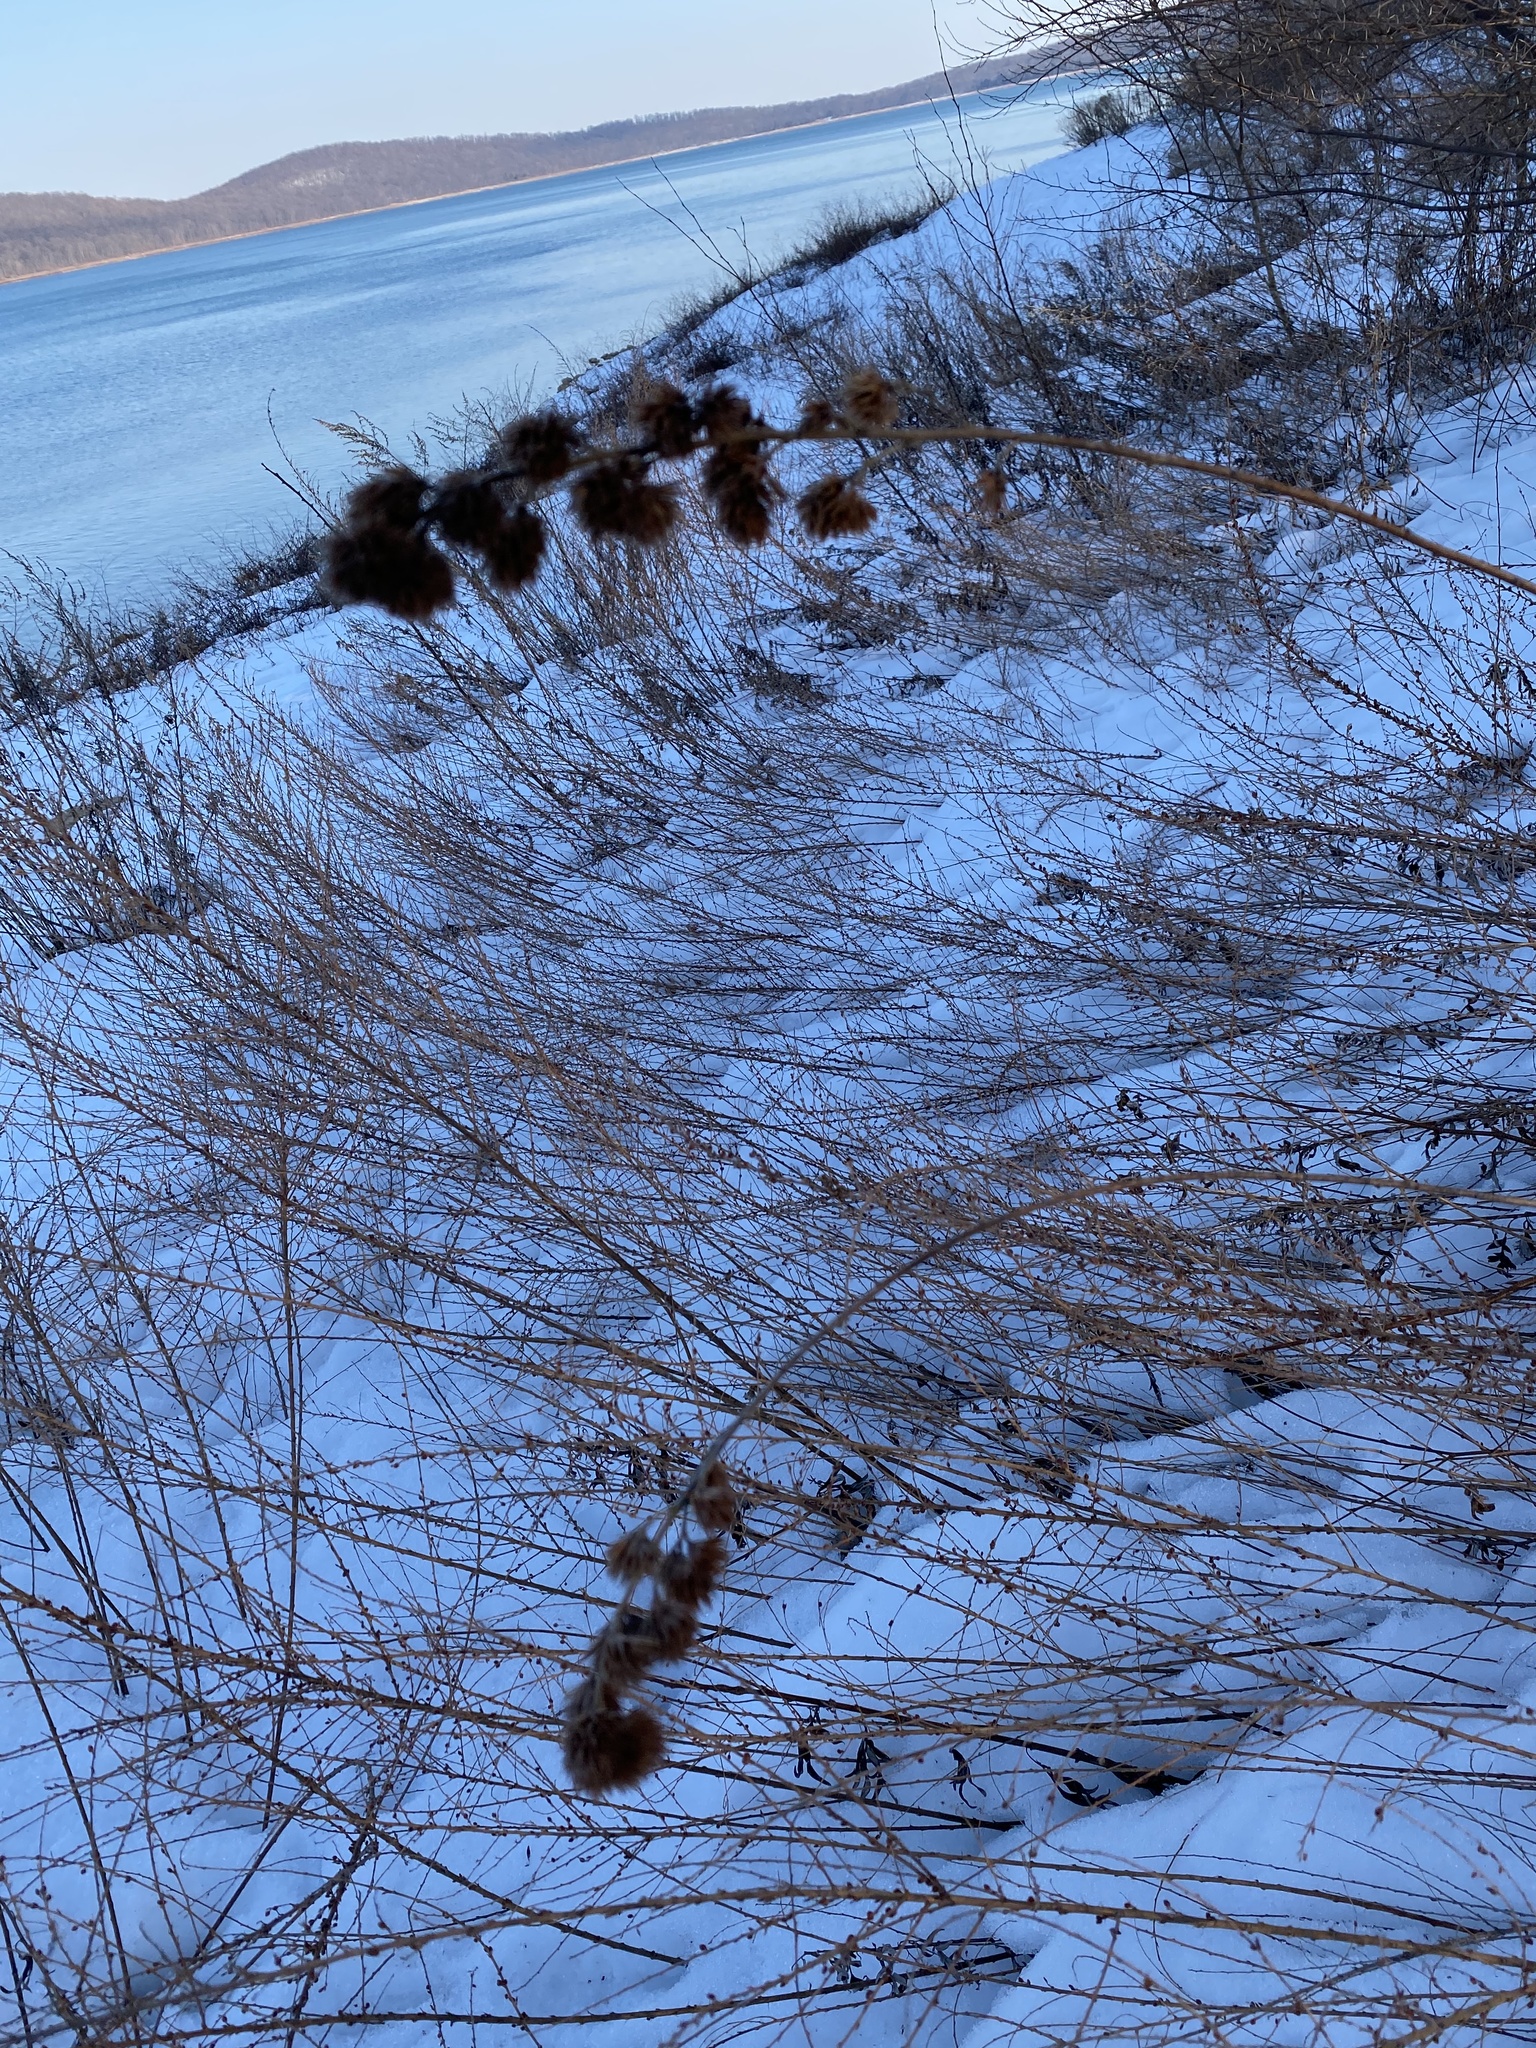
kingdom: Plantae
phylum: Tracheophyta
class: Magnoliopsida
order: Fabales
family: Fabaceae
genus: Lespedeza
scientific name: Lespedeza capitata
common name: Dusty clover
